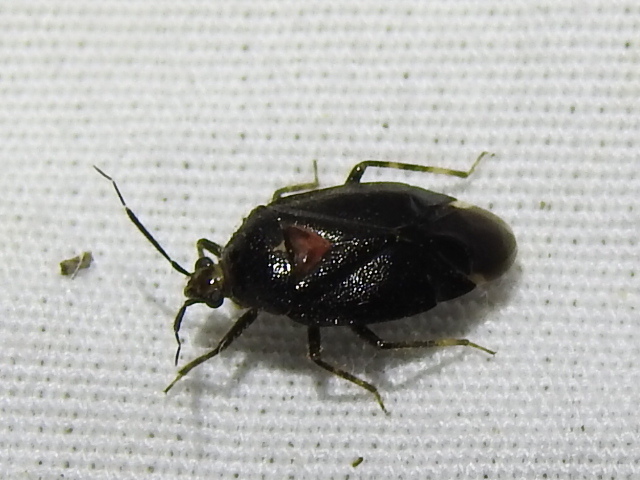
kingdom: Animalia
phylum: Arthropoda
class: Insecta
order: Hemiptera
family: Miridae
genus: Deraeocoris
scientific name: Deraeocoris sayi
